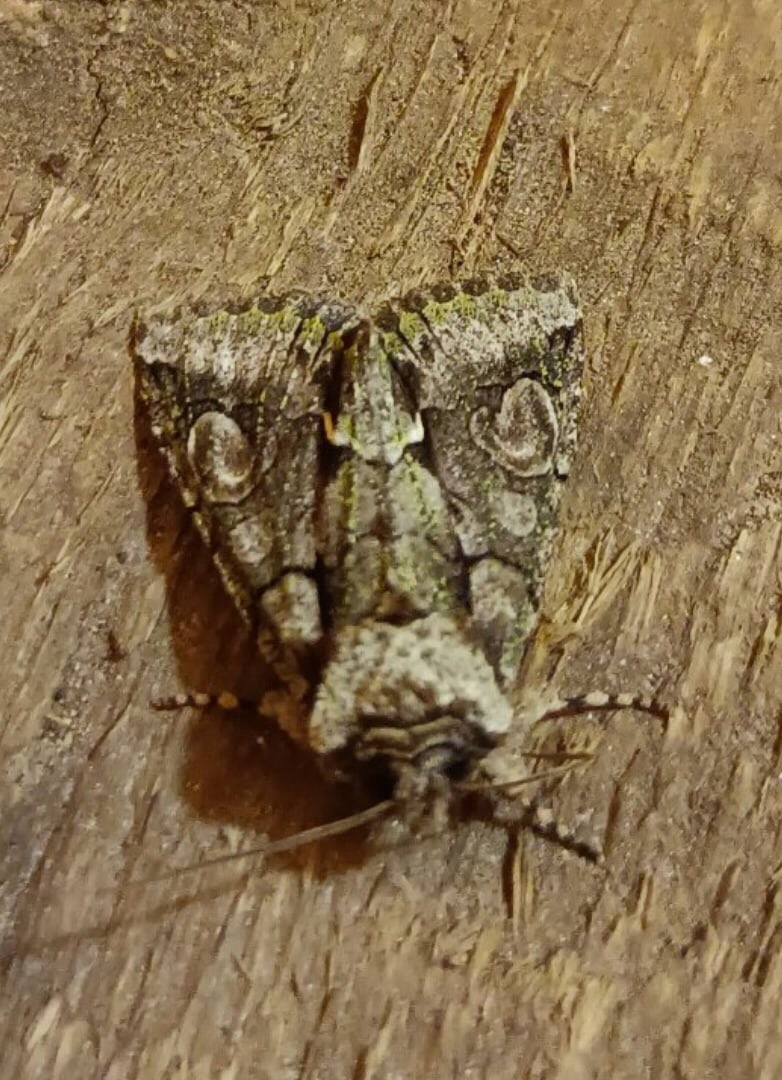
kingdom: Animalia
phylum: Arthropoda
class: Insecta
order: Lepidoptera
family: Noctuidae
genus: Allophyes
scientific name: Allophyes oxyacanthae
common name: Green-brindled crescent
